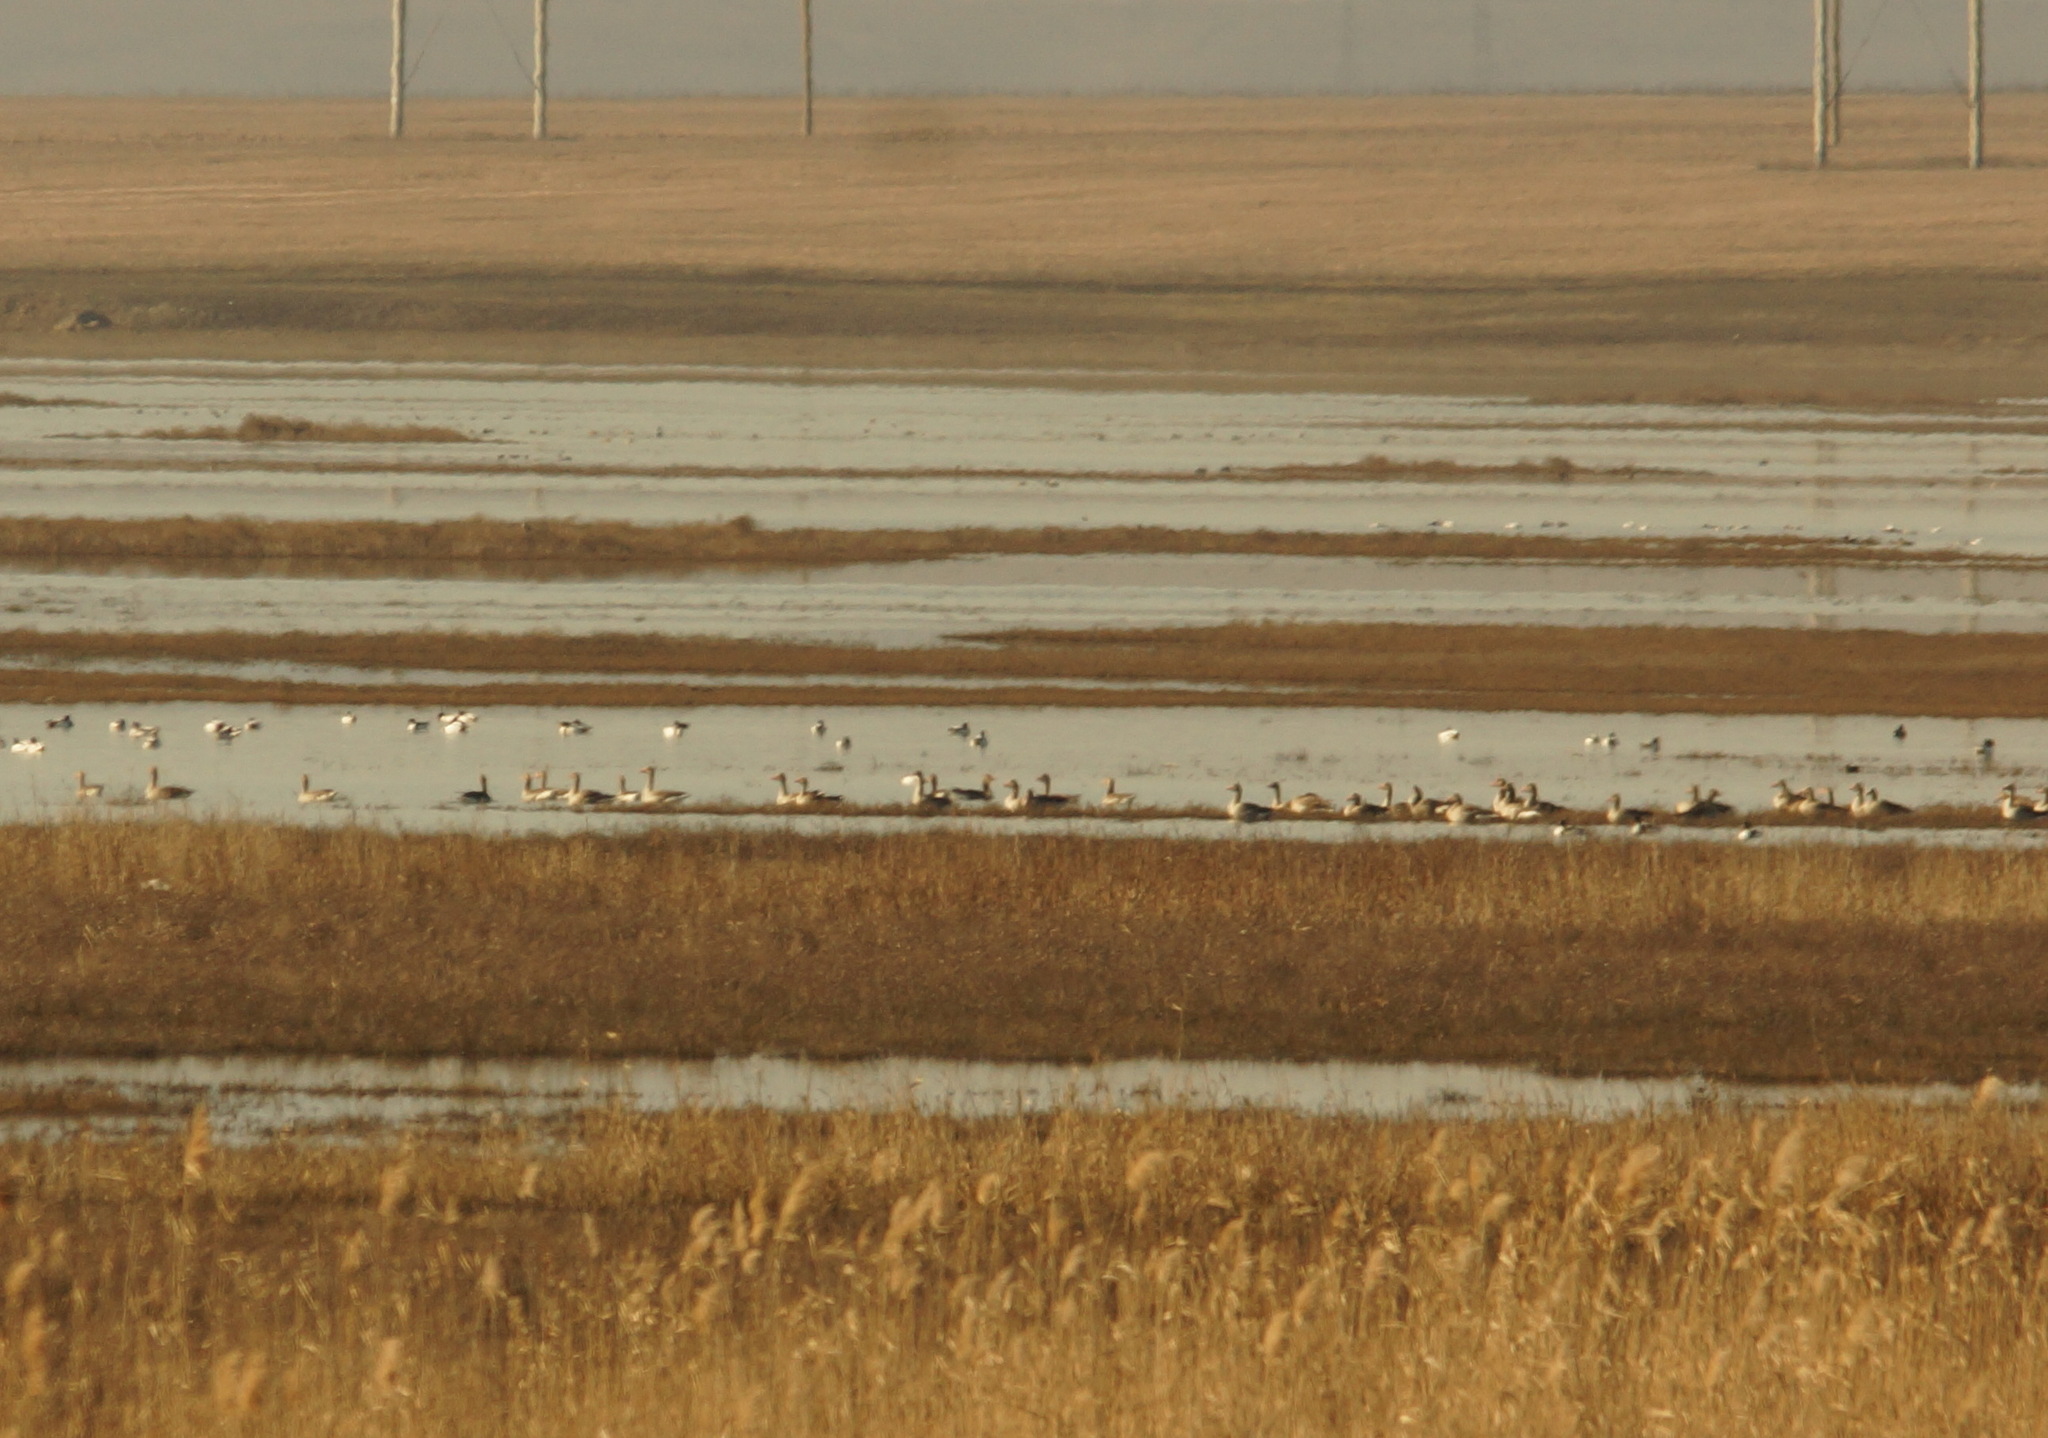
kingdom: Animalia
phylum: Chordata
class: Aves
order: Anseriformes
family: Anatidae
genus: Anser
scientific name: Anser anser
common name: Greylag goose
